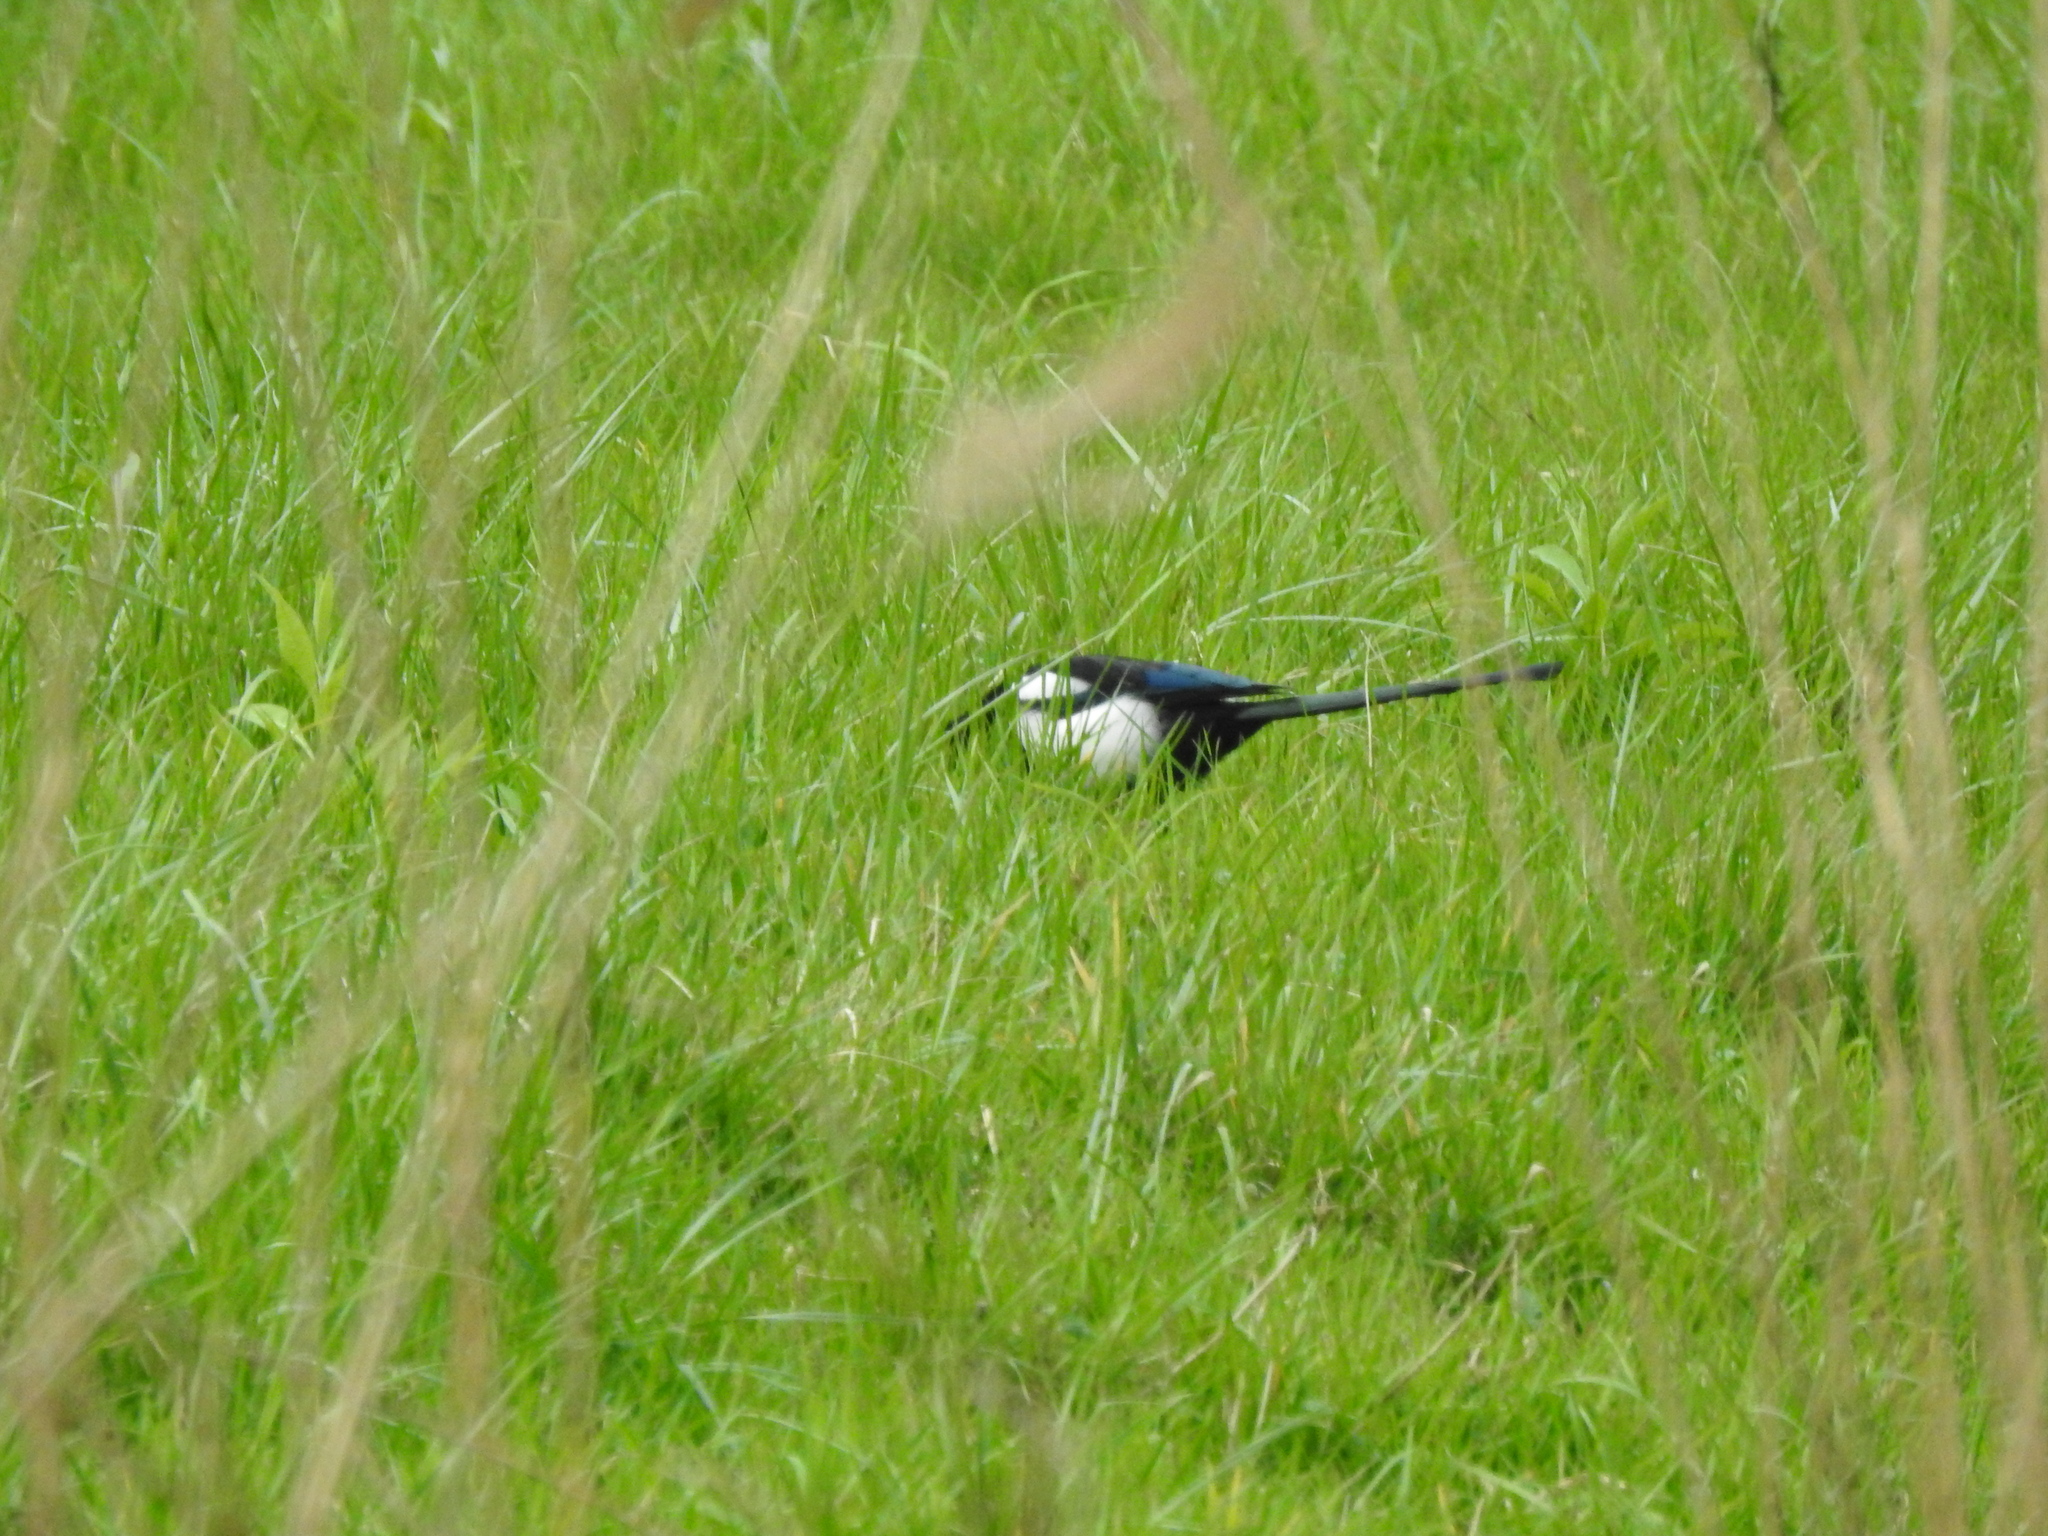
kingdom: Animalia
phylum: Chordata
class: Aves
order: Passeriformes
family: Corvidae
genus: Pica
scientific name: Pica pica
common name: Eurasian magpie
